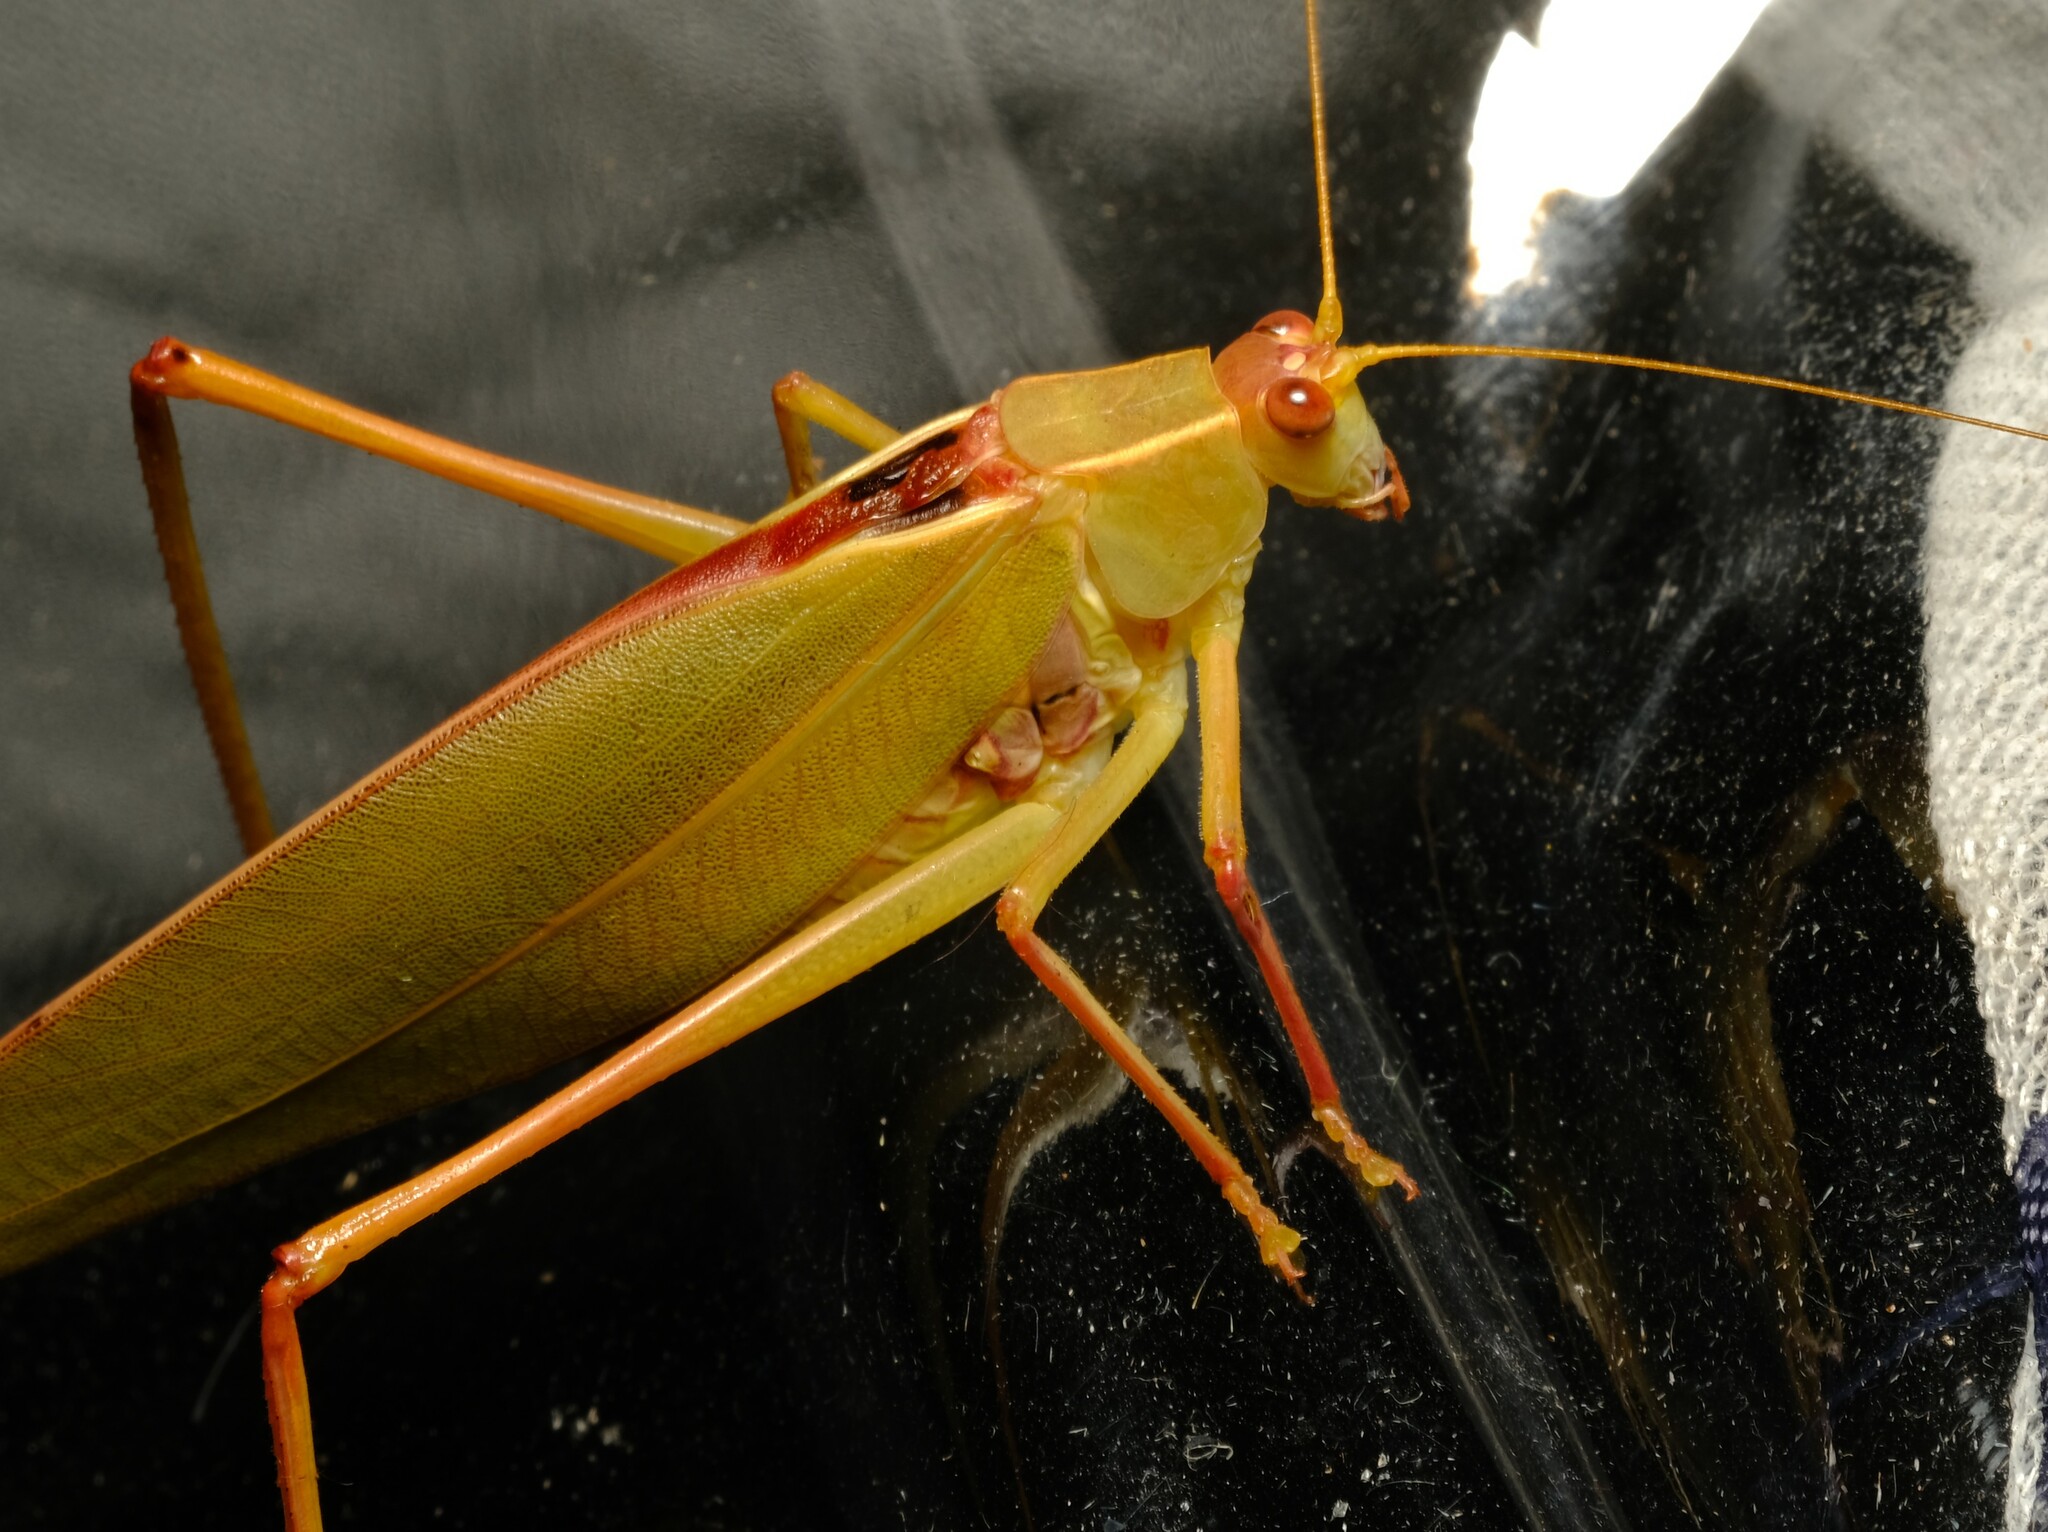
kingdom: Animalia
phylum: Arthropoda
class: Insecta
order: Orthoptera
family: Tettigoniidae
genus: Torbia
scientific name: Torbia viridissima
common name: Non-predaceous gum leaf katydid
